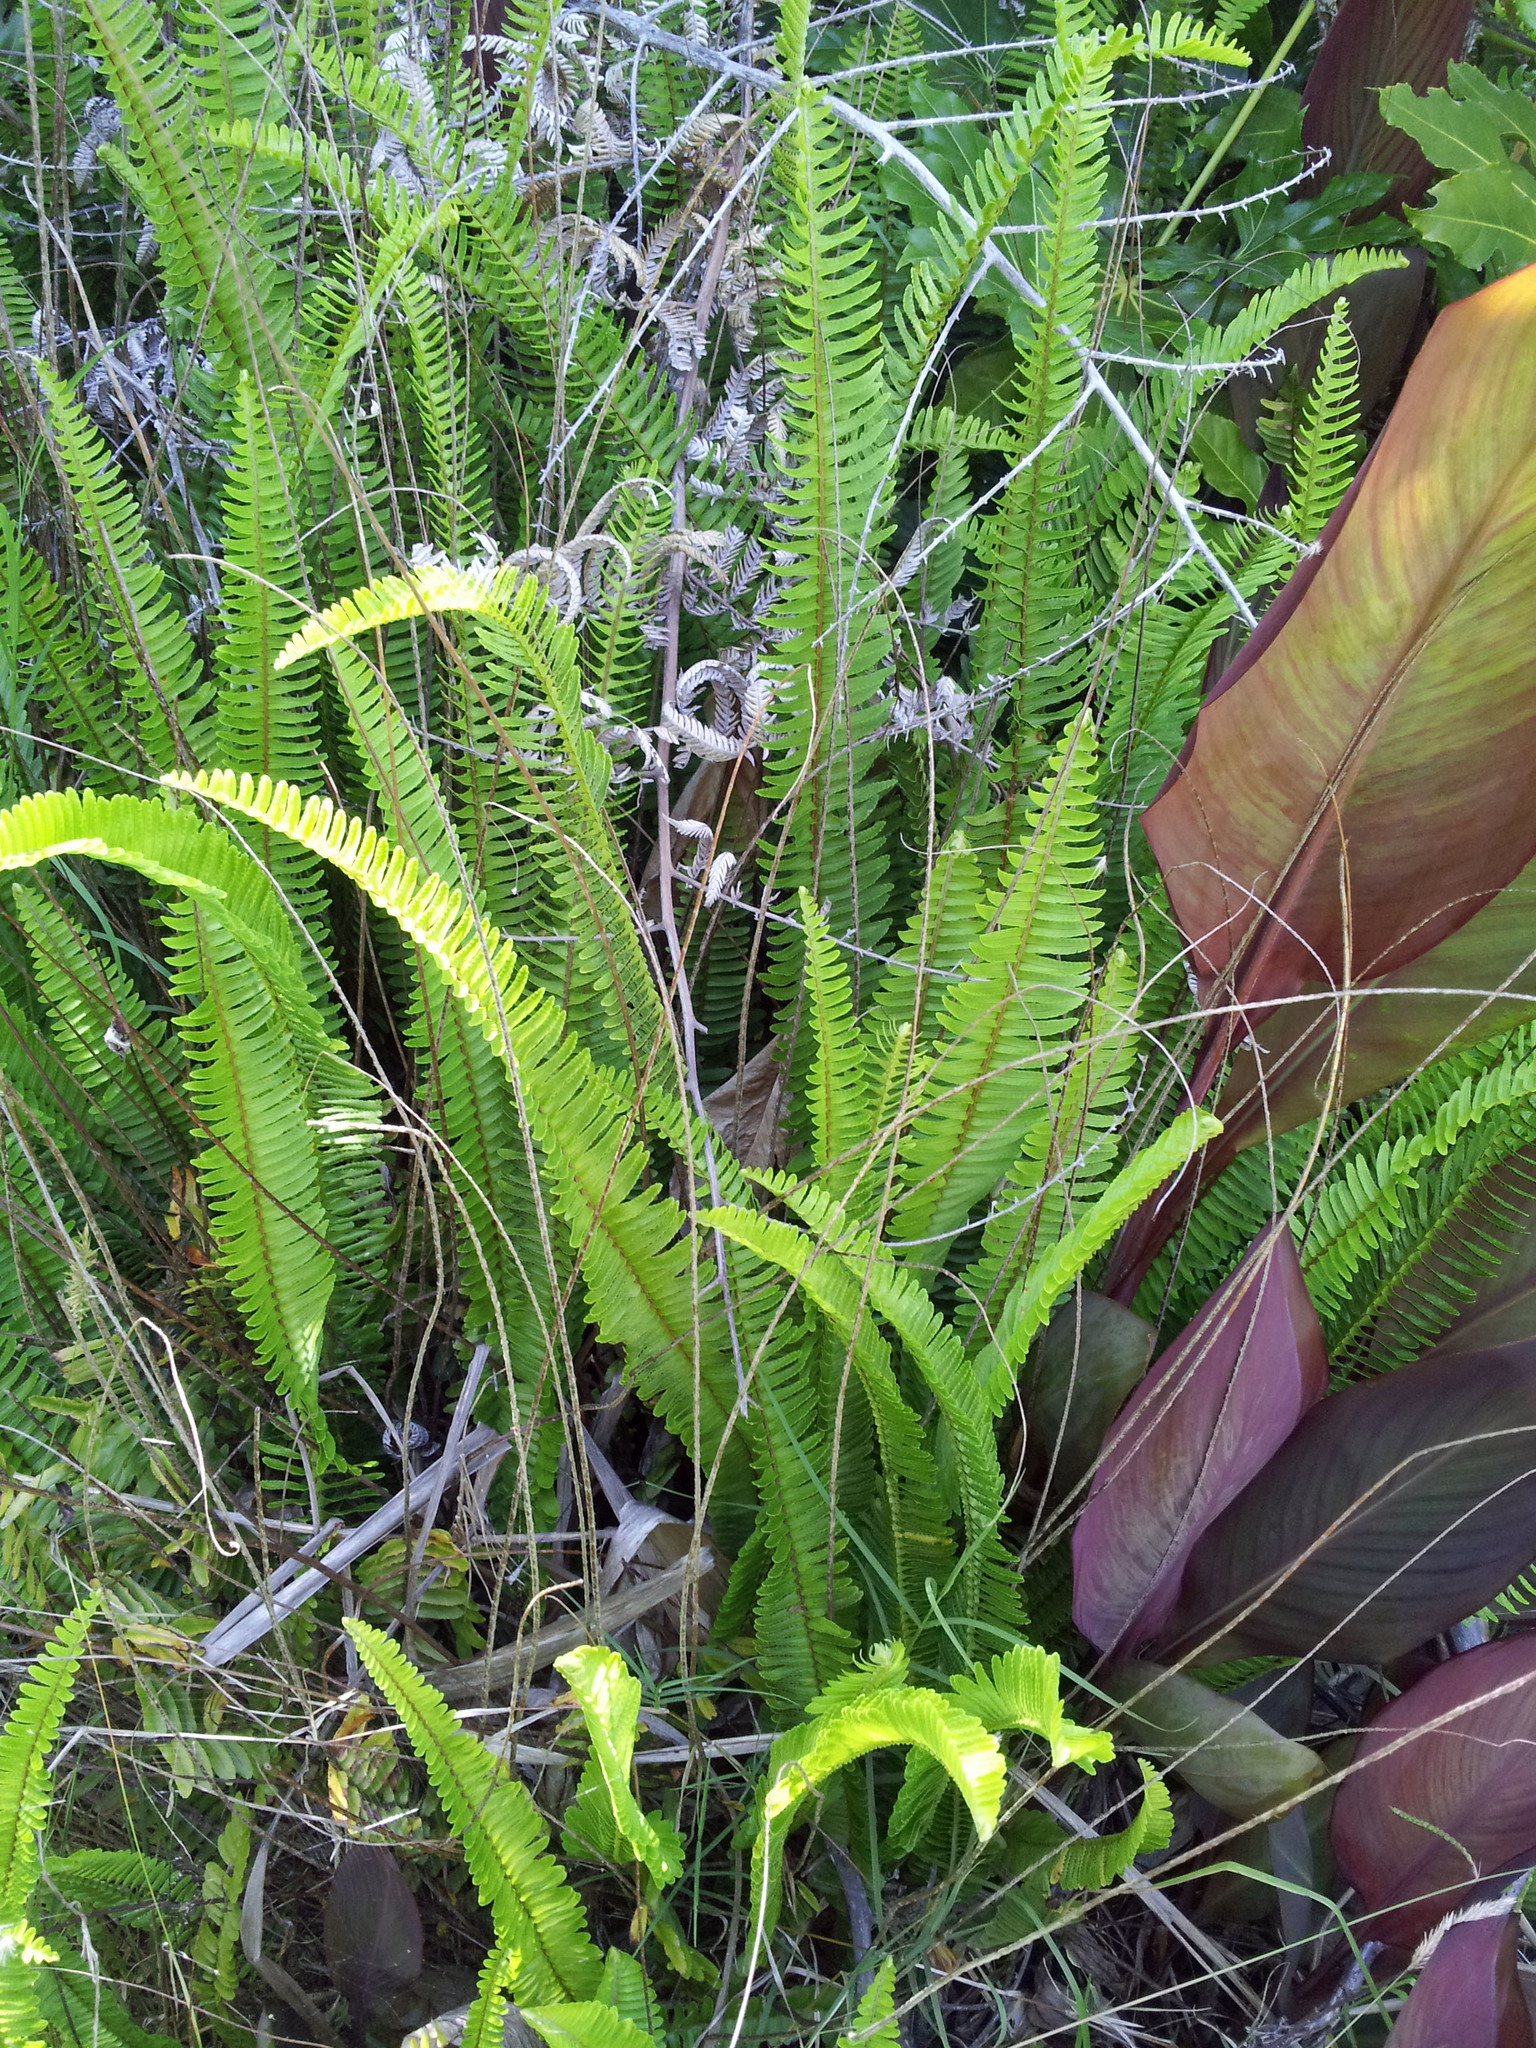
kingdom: Plantae
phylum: Tracheophyta
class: Polypodiopsida
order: Polypodiales
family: Nephrolepidaceae
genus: Nephrolepis
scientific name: Nephrolepis cordifolia
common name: Narrow swordfern
